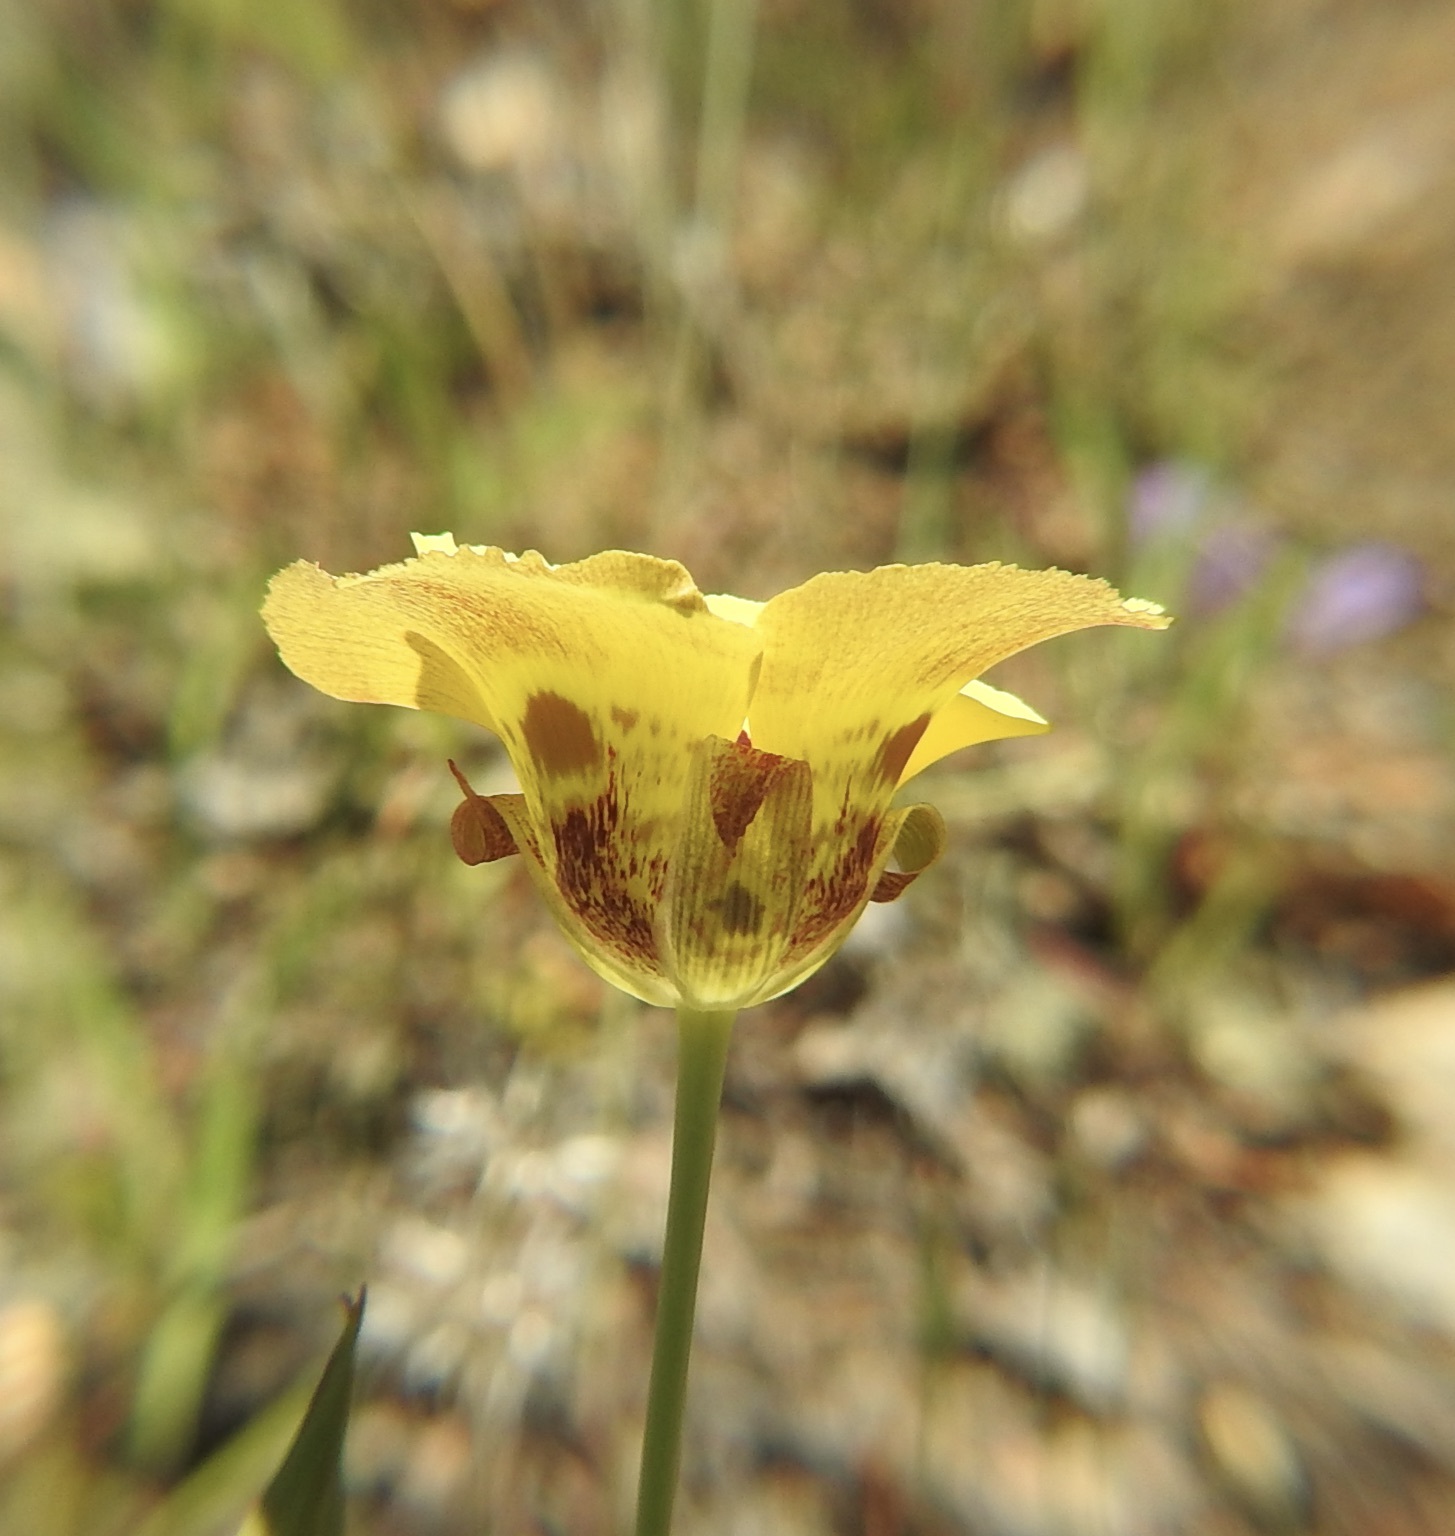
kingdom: Plantae
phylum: Tracheophyta
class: Liliopsida
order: Liliales
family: Liliaceae
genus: Calochortus
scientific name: Calochortus luteus
